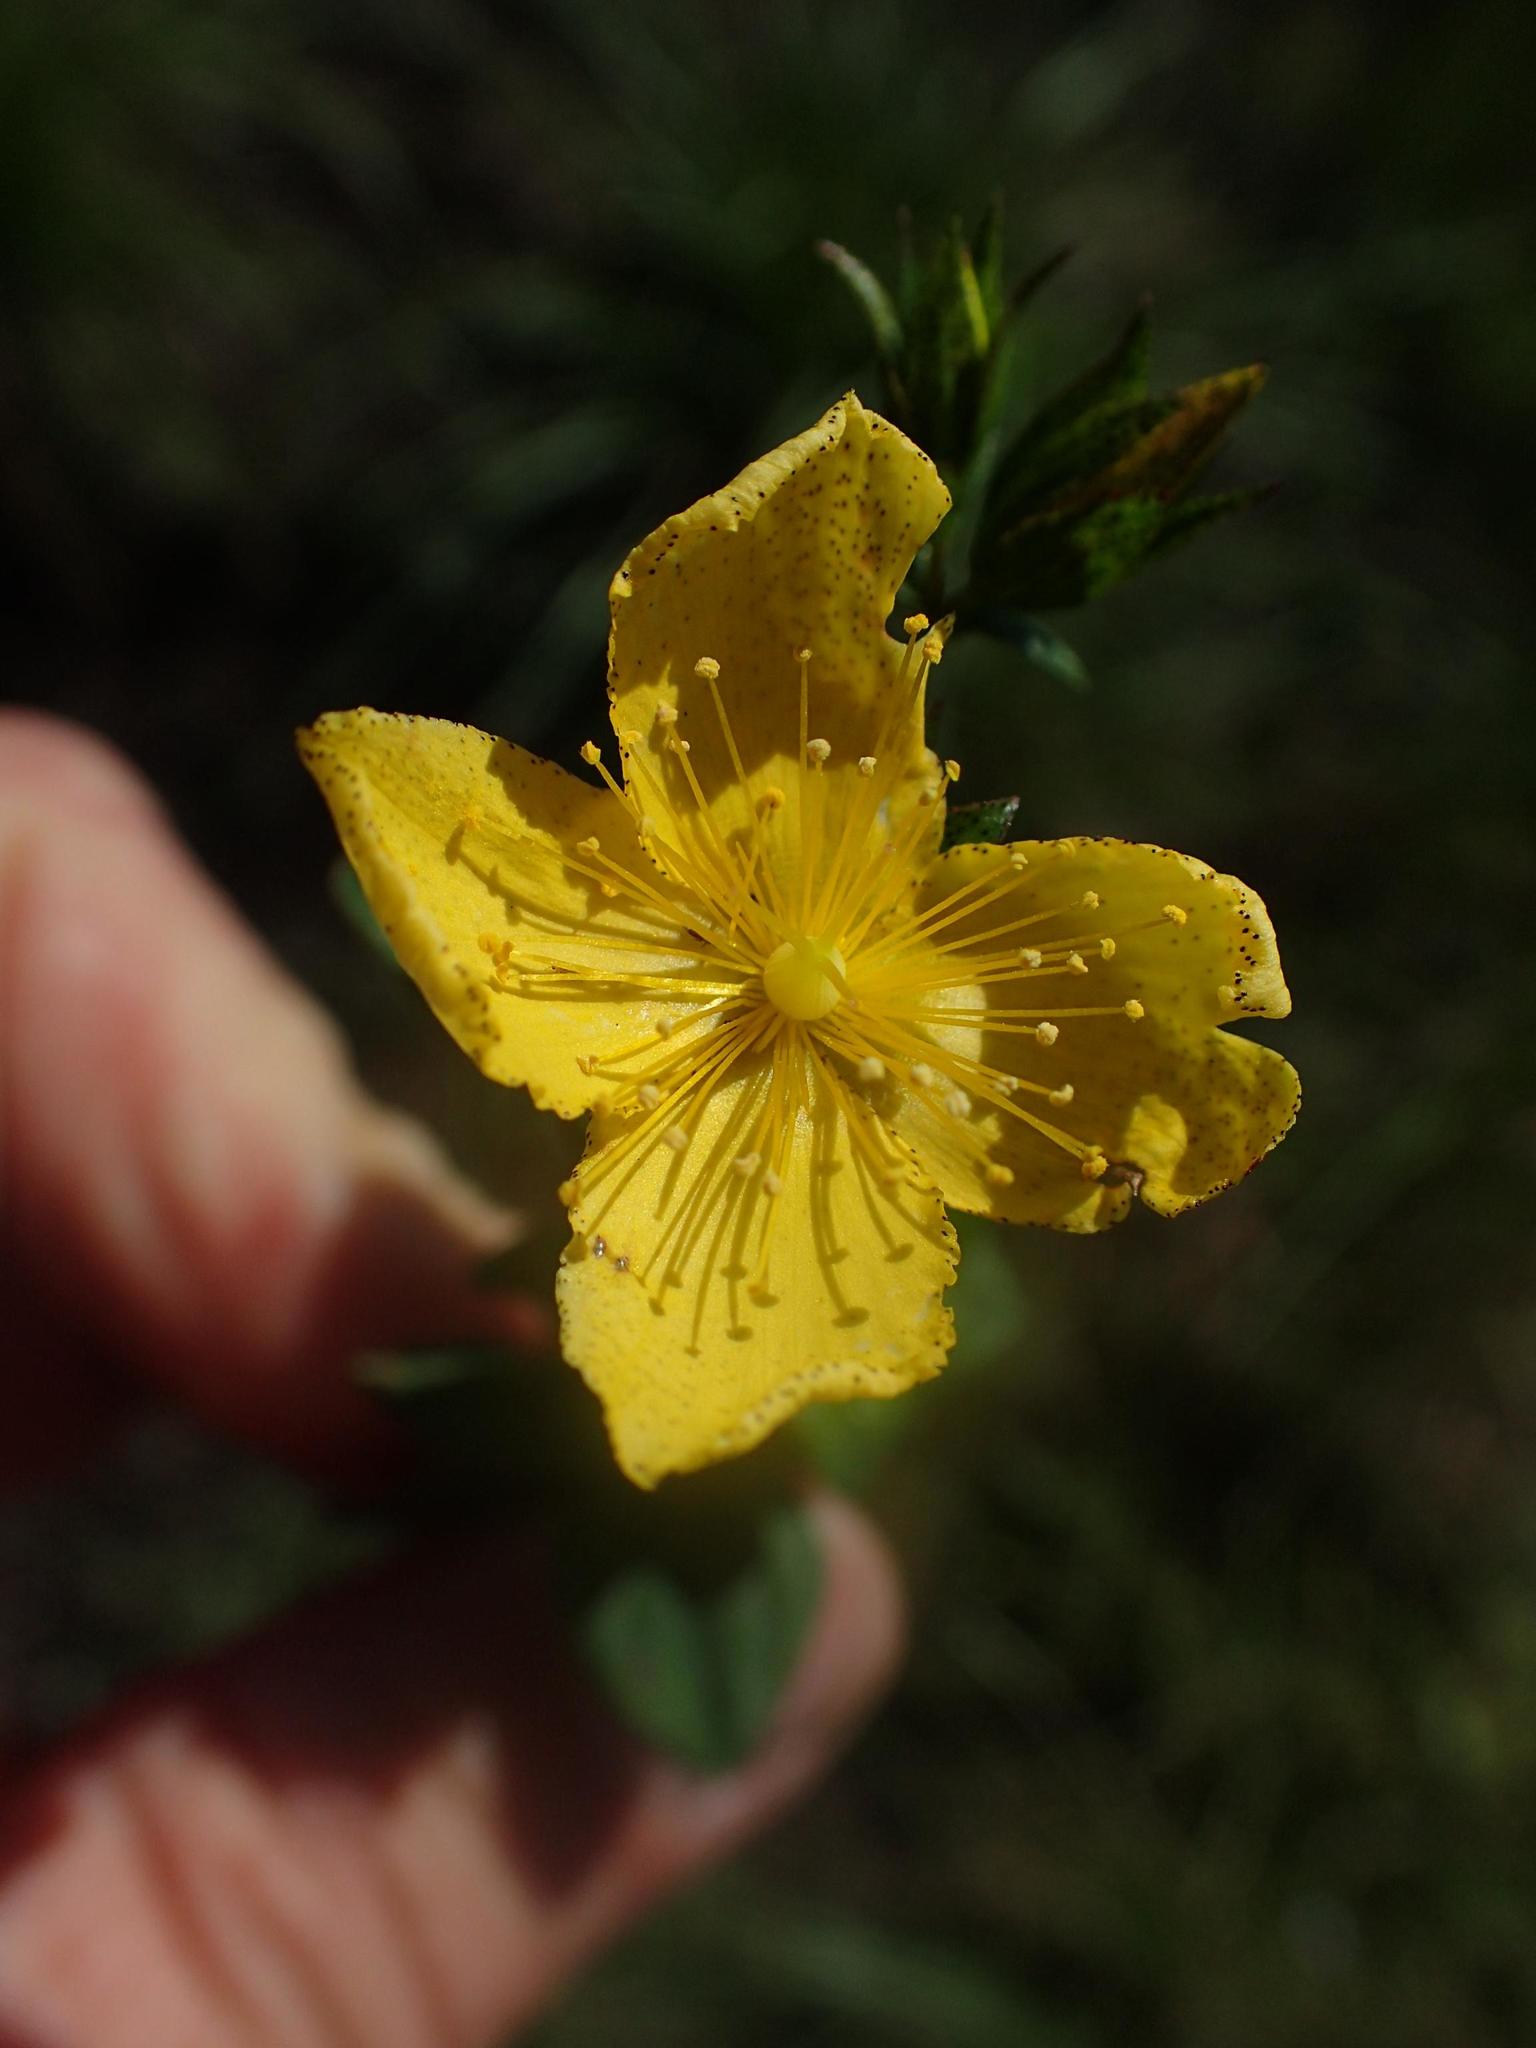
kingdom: Plantae
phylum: Tracheophyta
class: Magnoliopsida
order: Malpighiales
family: Hypericaceae
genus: Hypericum
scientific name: Hypericum aethiopicum
